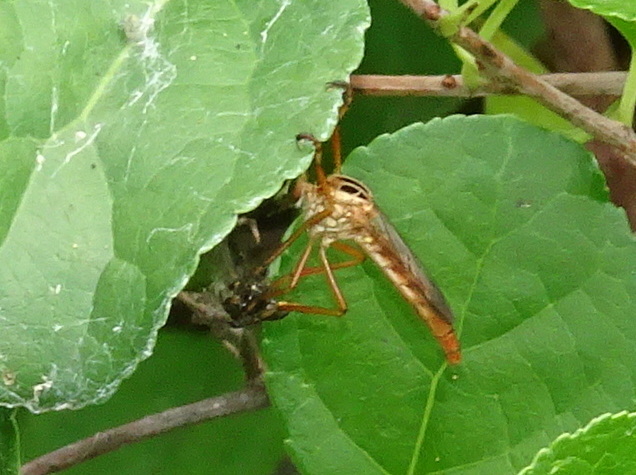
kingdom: Animalia
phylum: Arthropoda
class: Insecta
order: Diptera
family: Asilidae
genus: Diogmites
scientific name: Diogmites misellus
